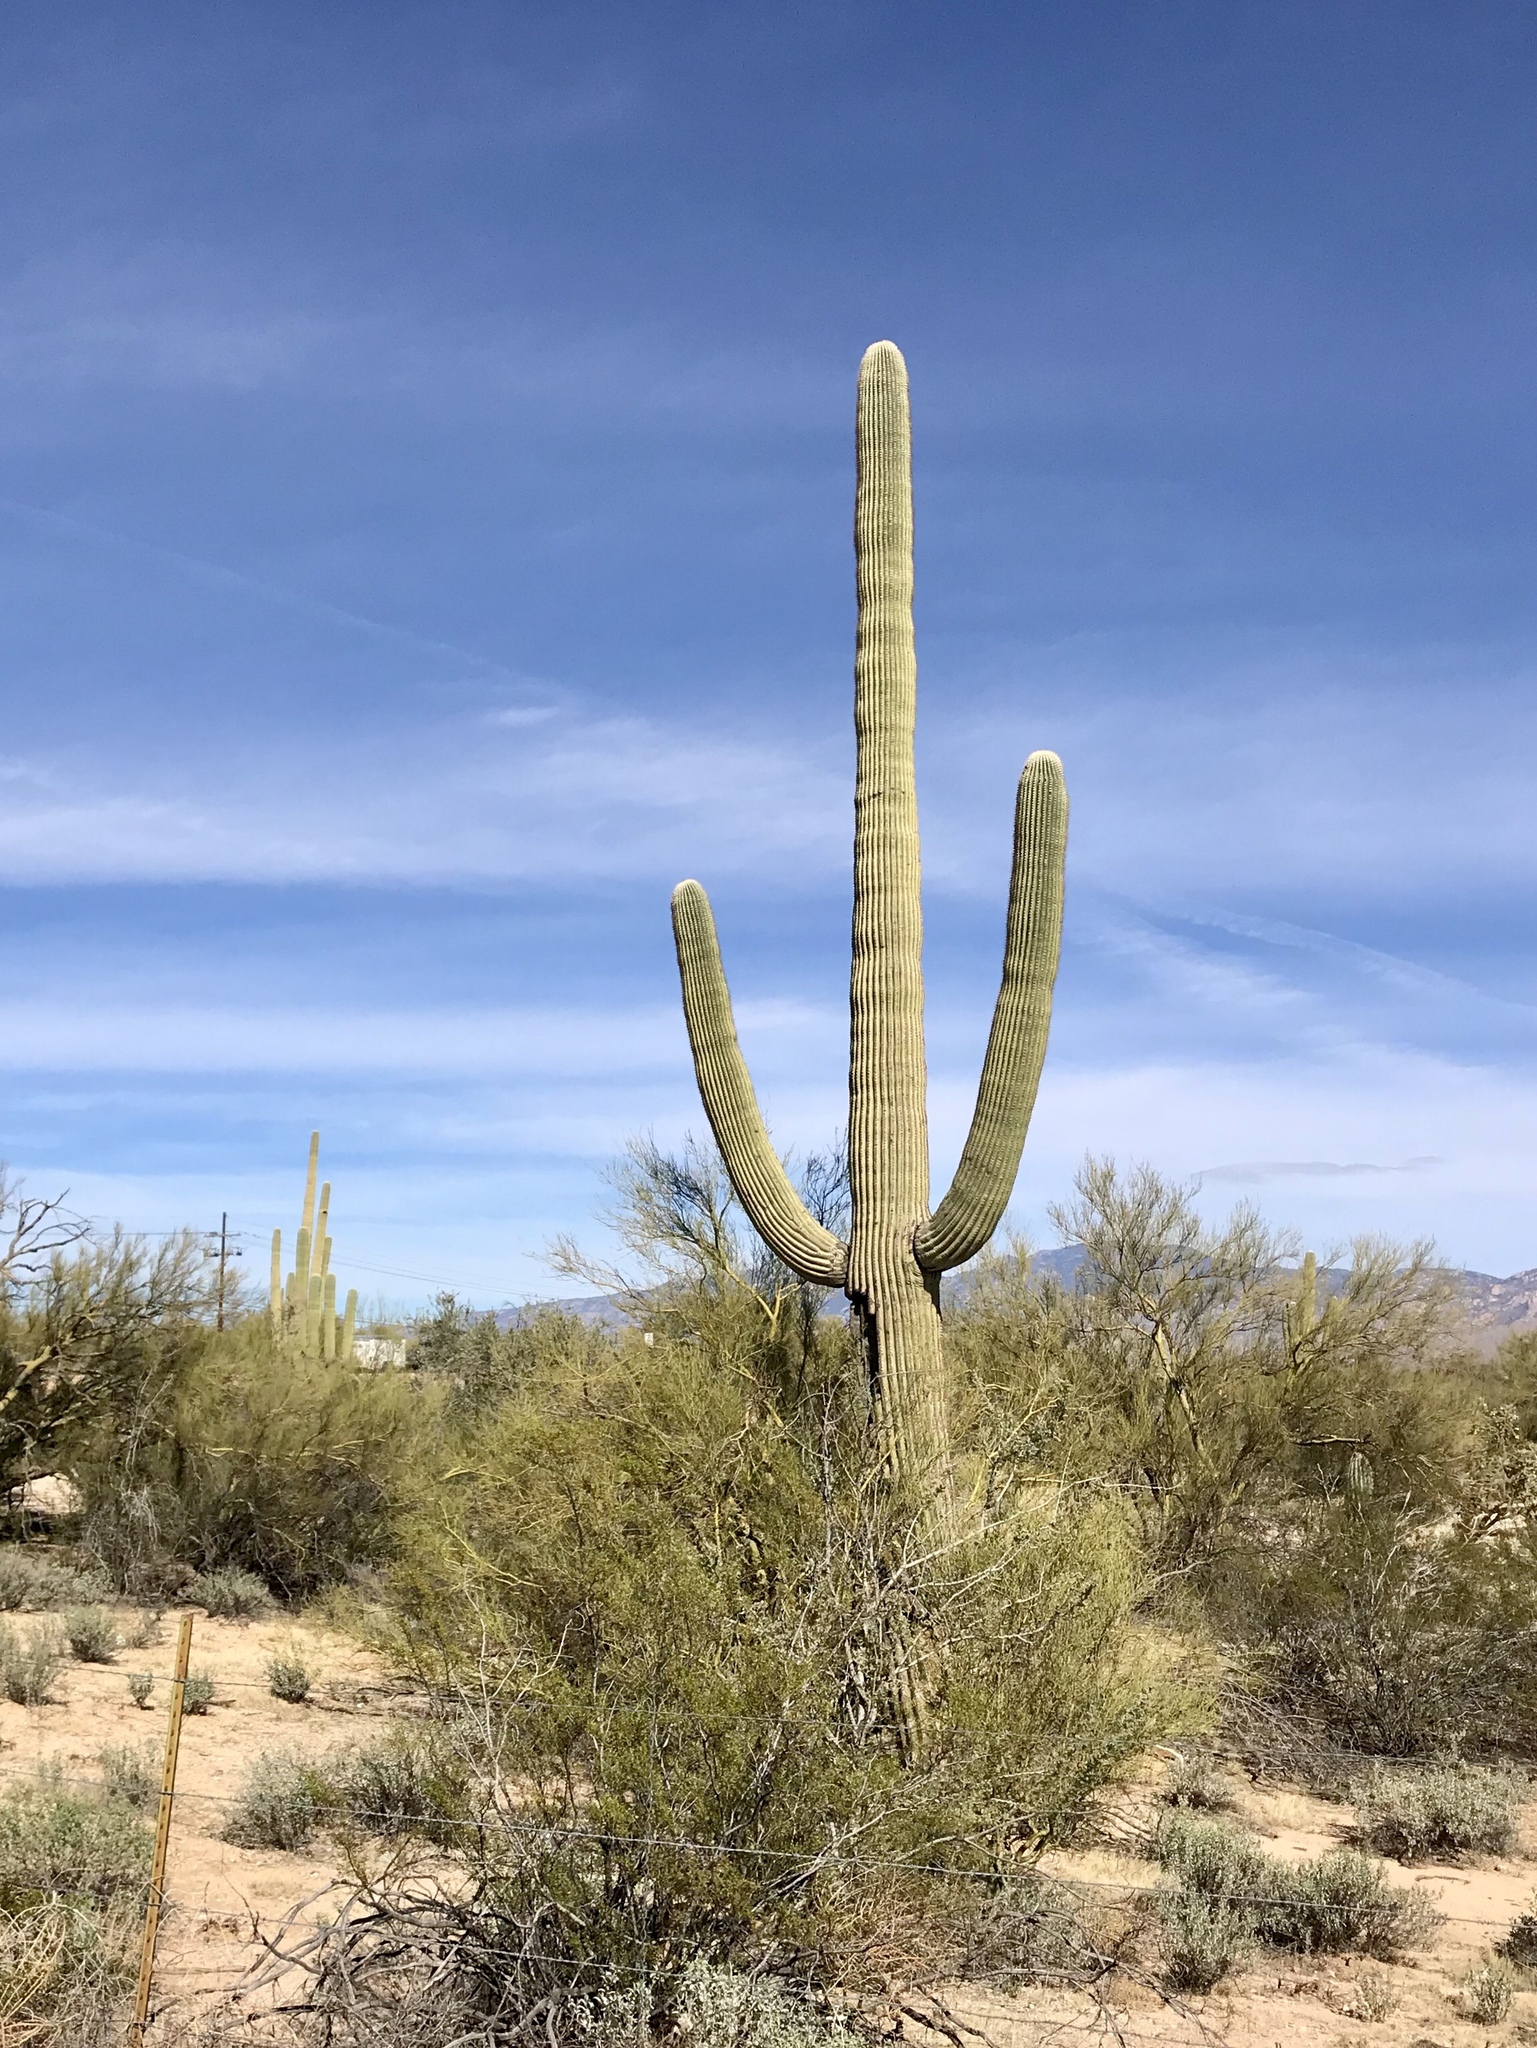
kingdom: Plantae
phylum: Tracheophyta
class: Magnoliopsida
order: Caryophyllales
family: Cactaceae
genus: Carnegiea
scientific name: Carnegiea gigantea
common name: Saguaro
